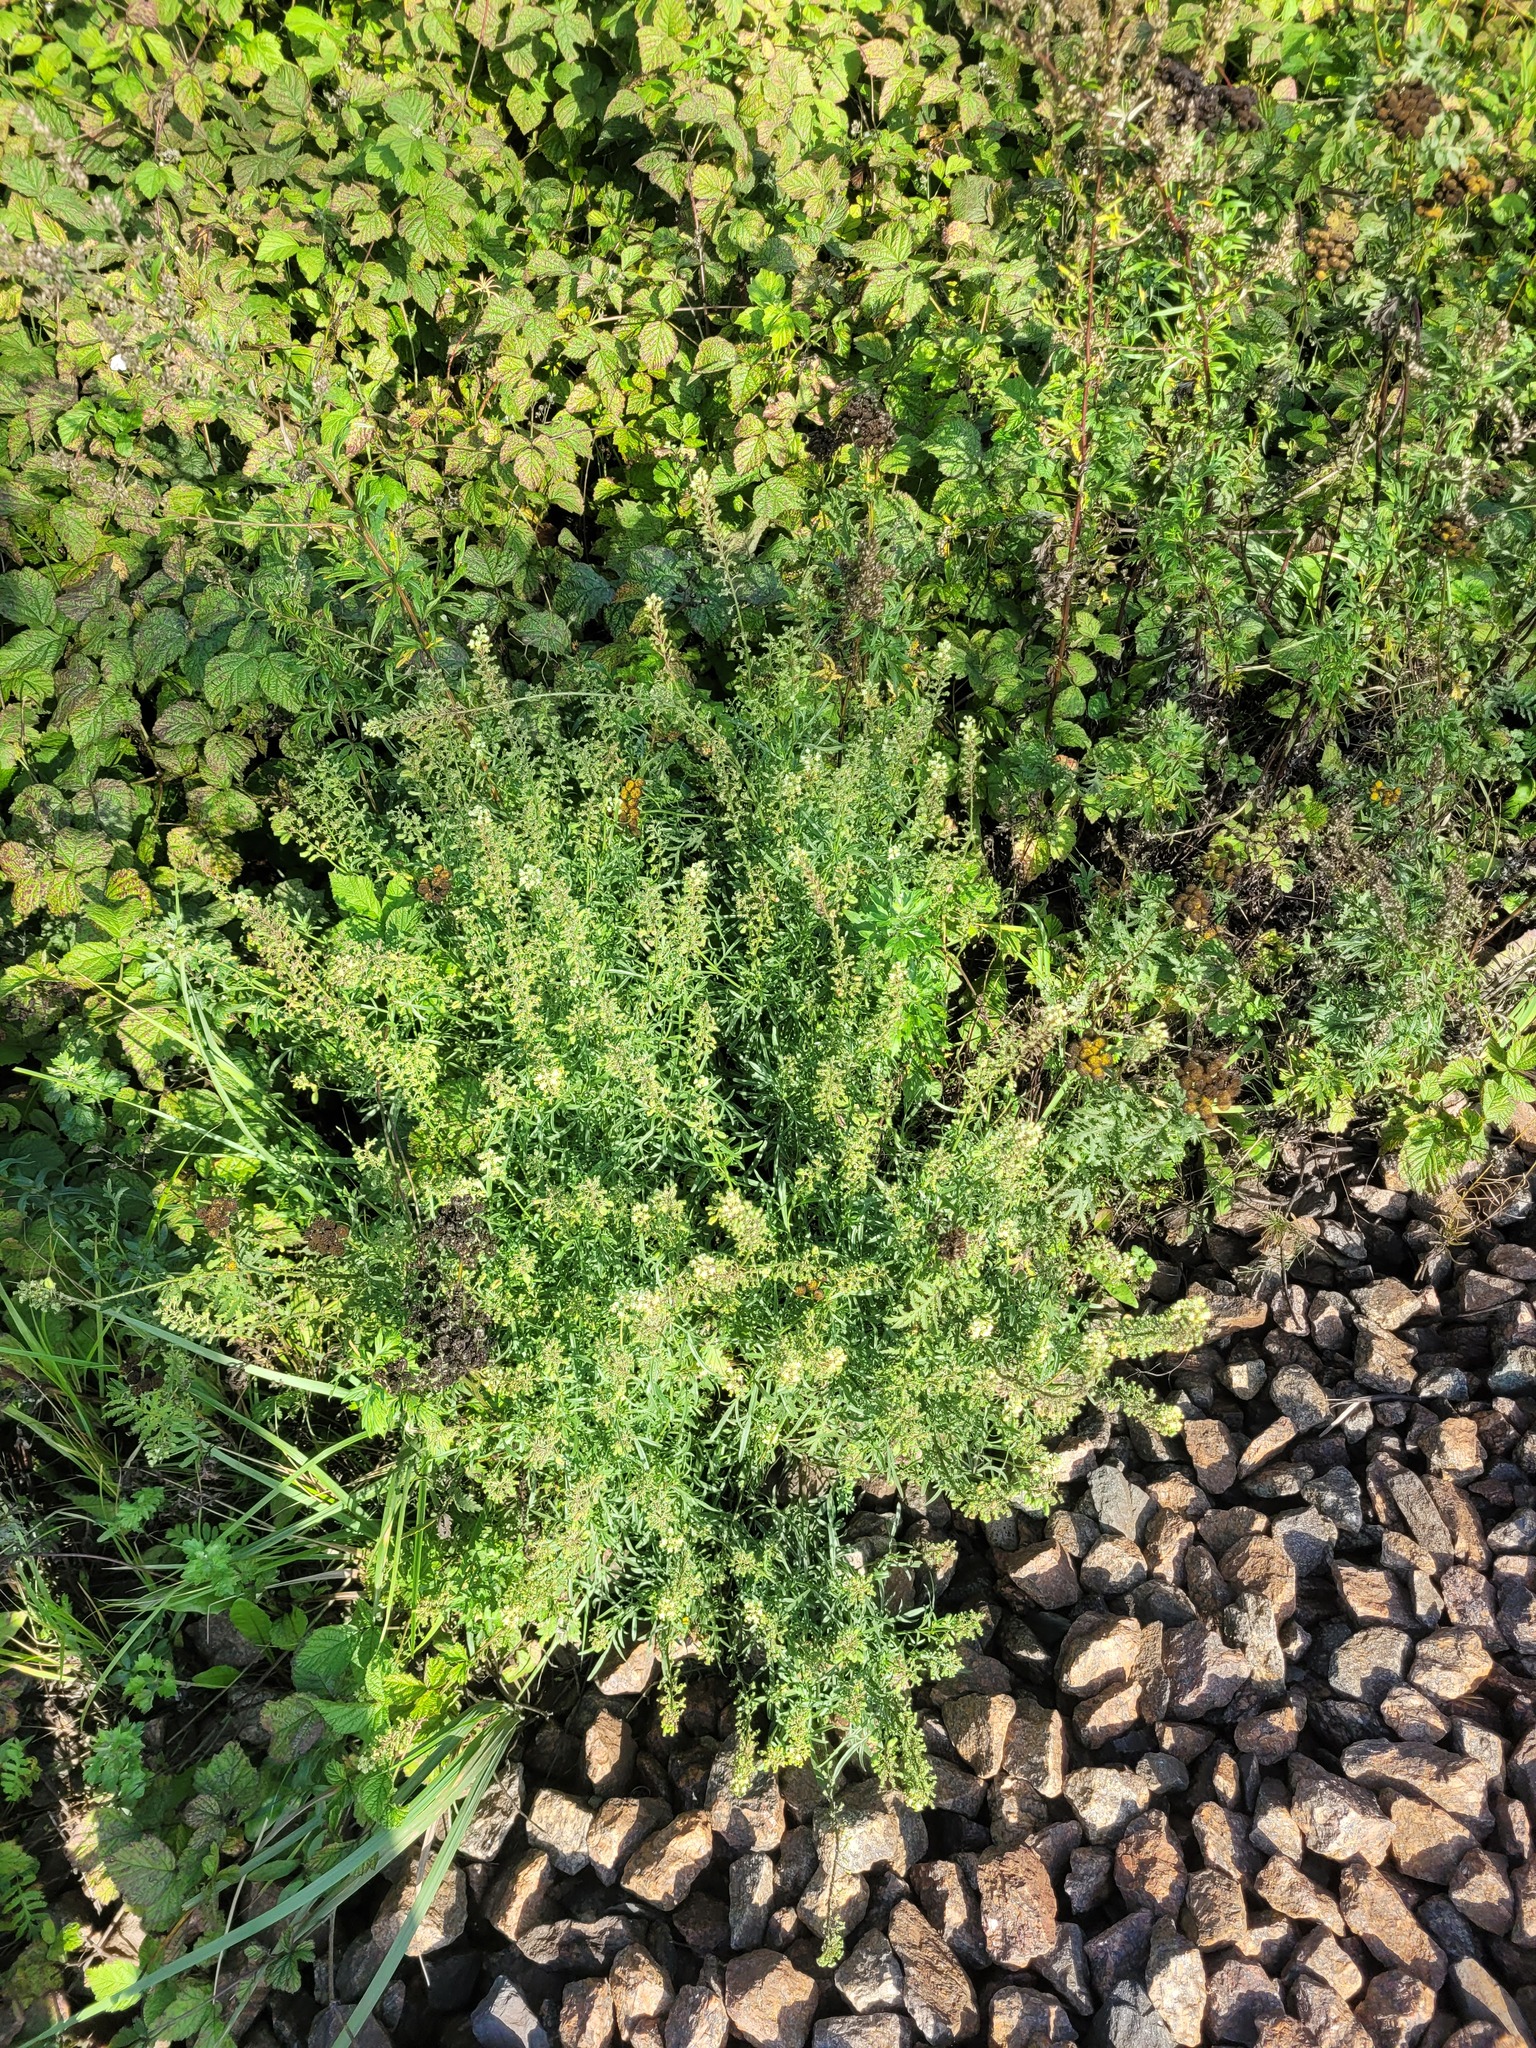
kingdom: Plantae
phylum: Tracheophyta
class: Magnoliopsida
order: Brassicales
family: Resedaceae
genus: Reseda
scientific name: Reseda lutea
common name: Wild mignonette
